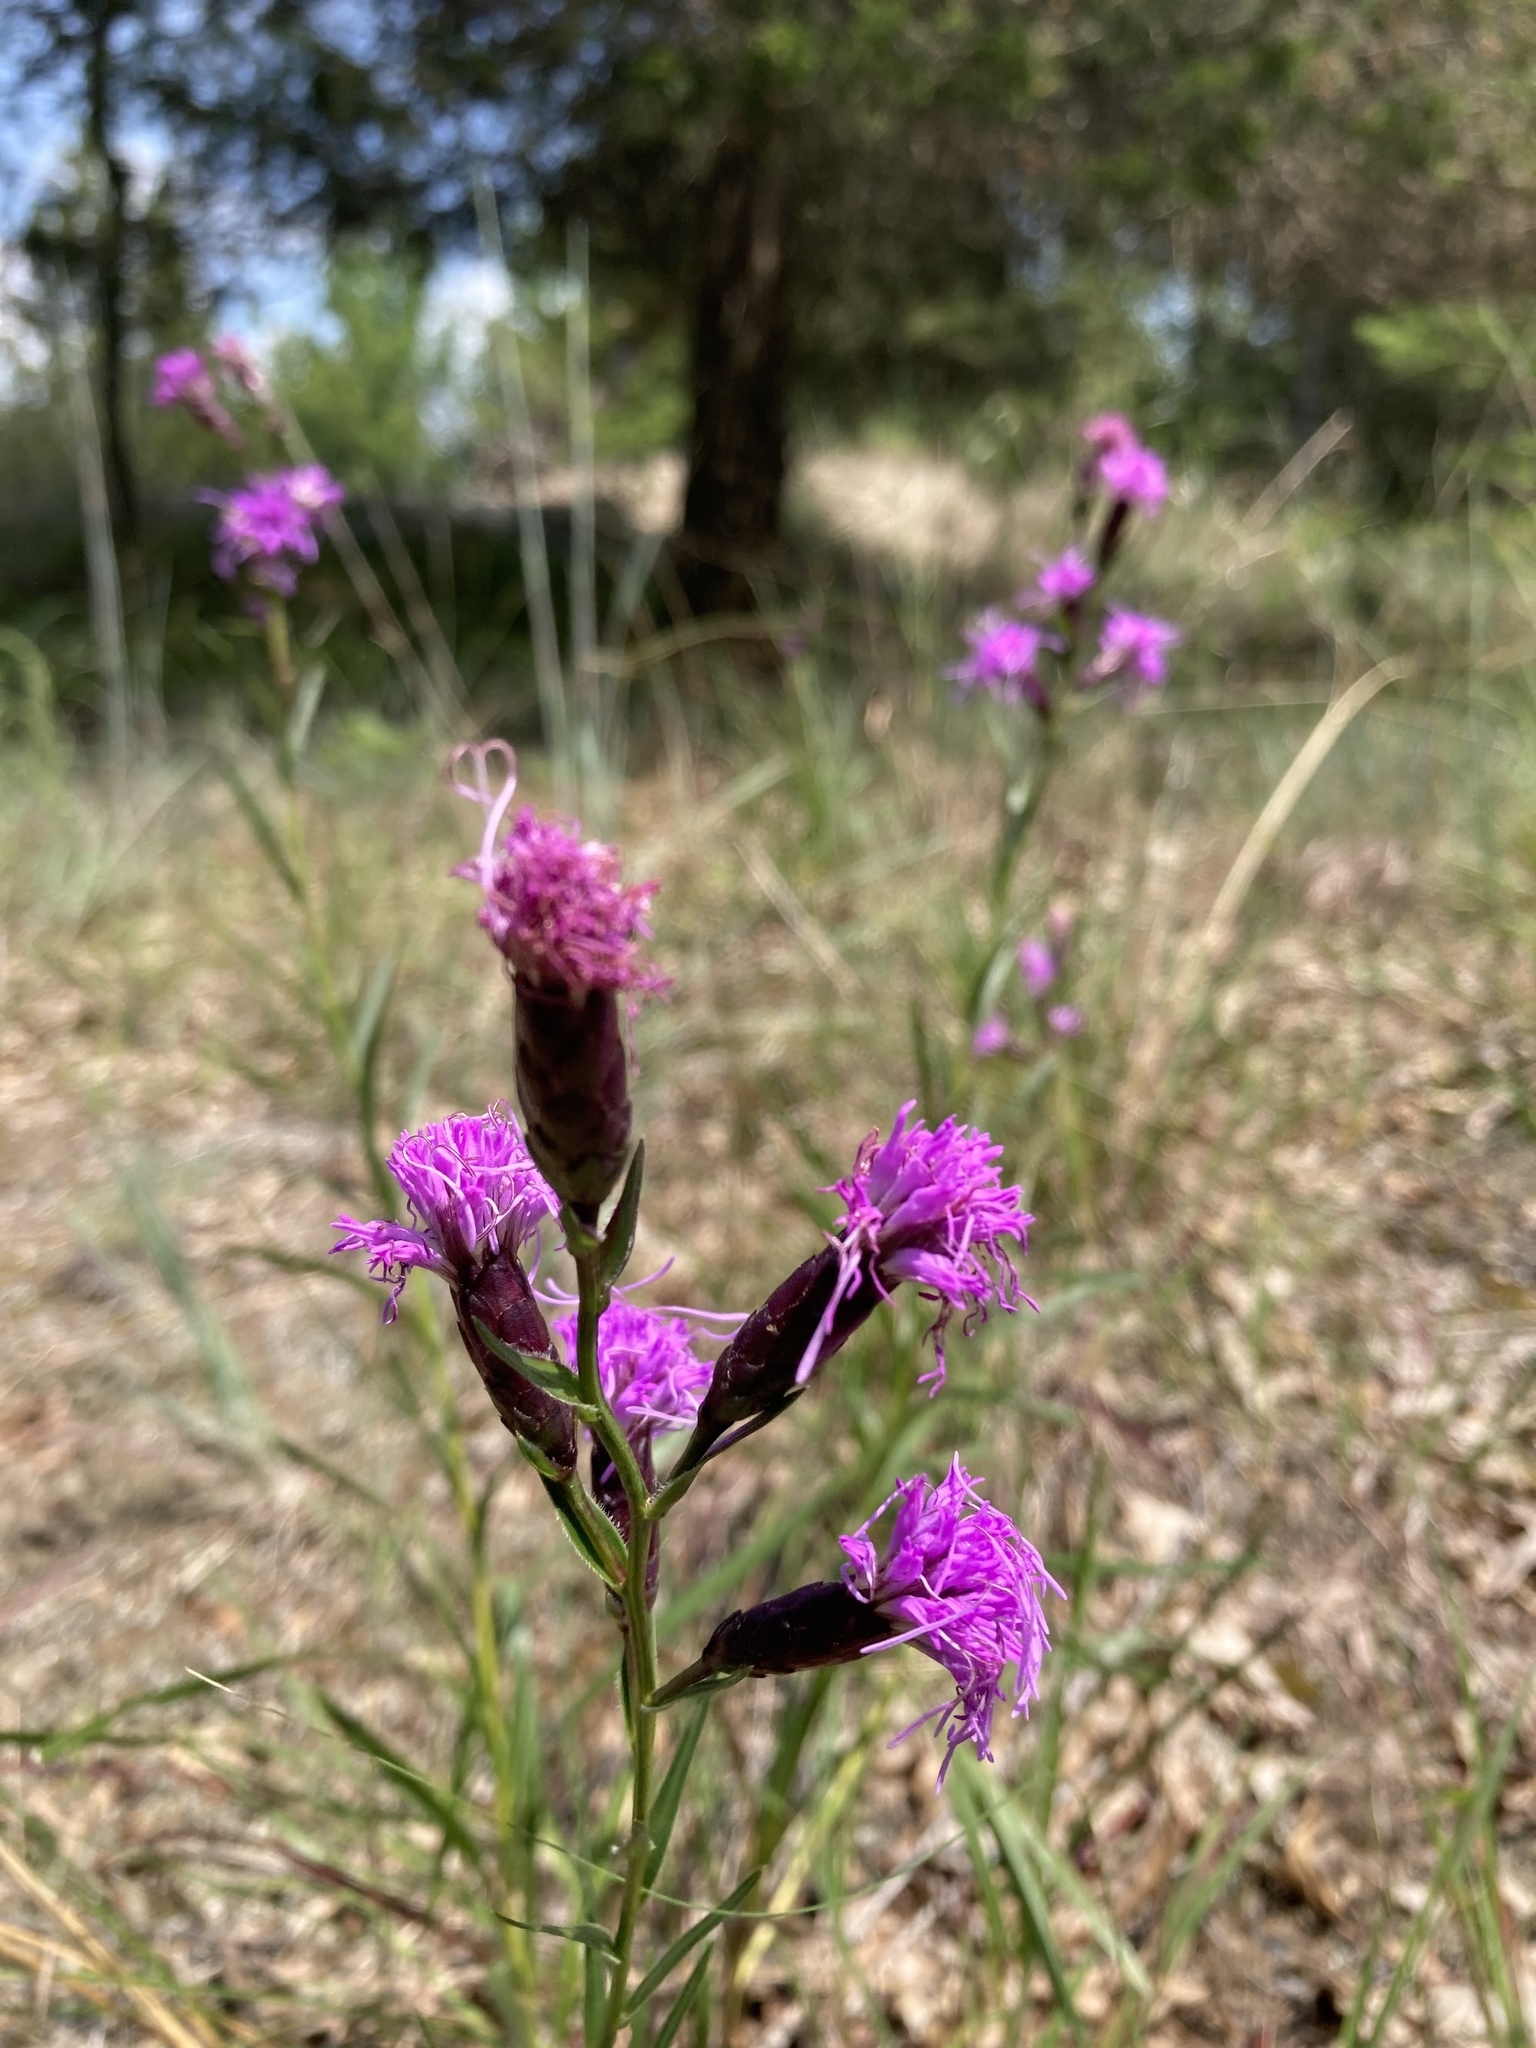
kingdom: Plantae
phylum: Tracheophyta
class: Magnoliopsida
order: Asterales
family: Asteraceae
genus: Liatris
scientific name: Liatris cylindracea
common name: Few-head blazingstar
